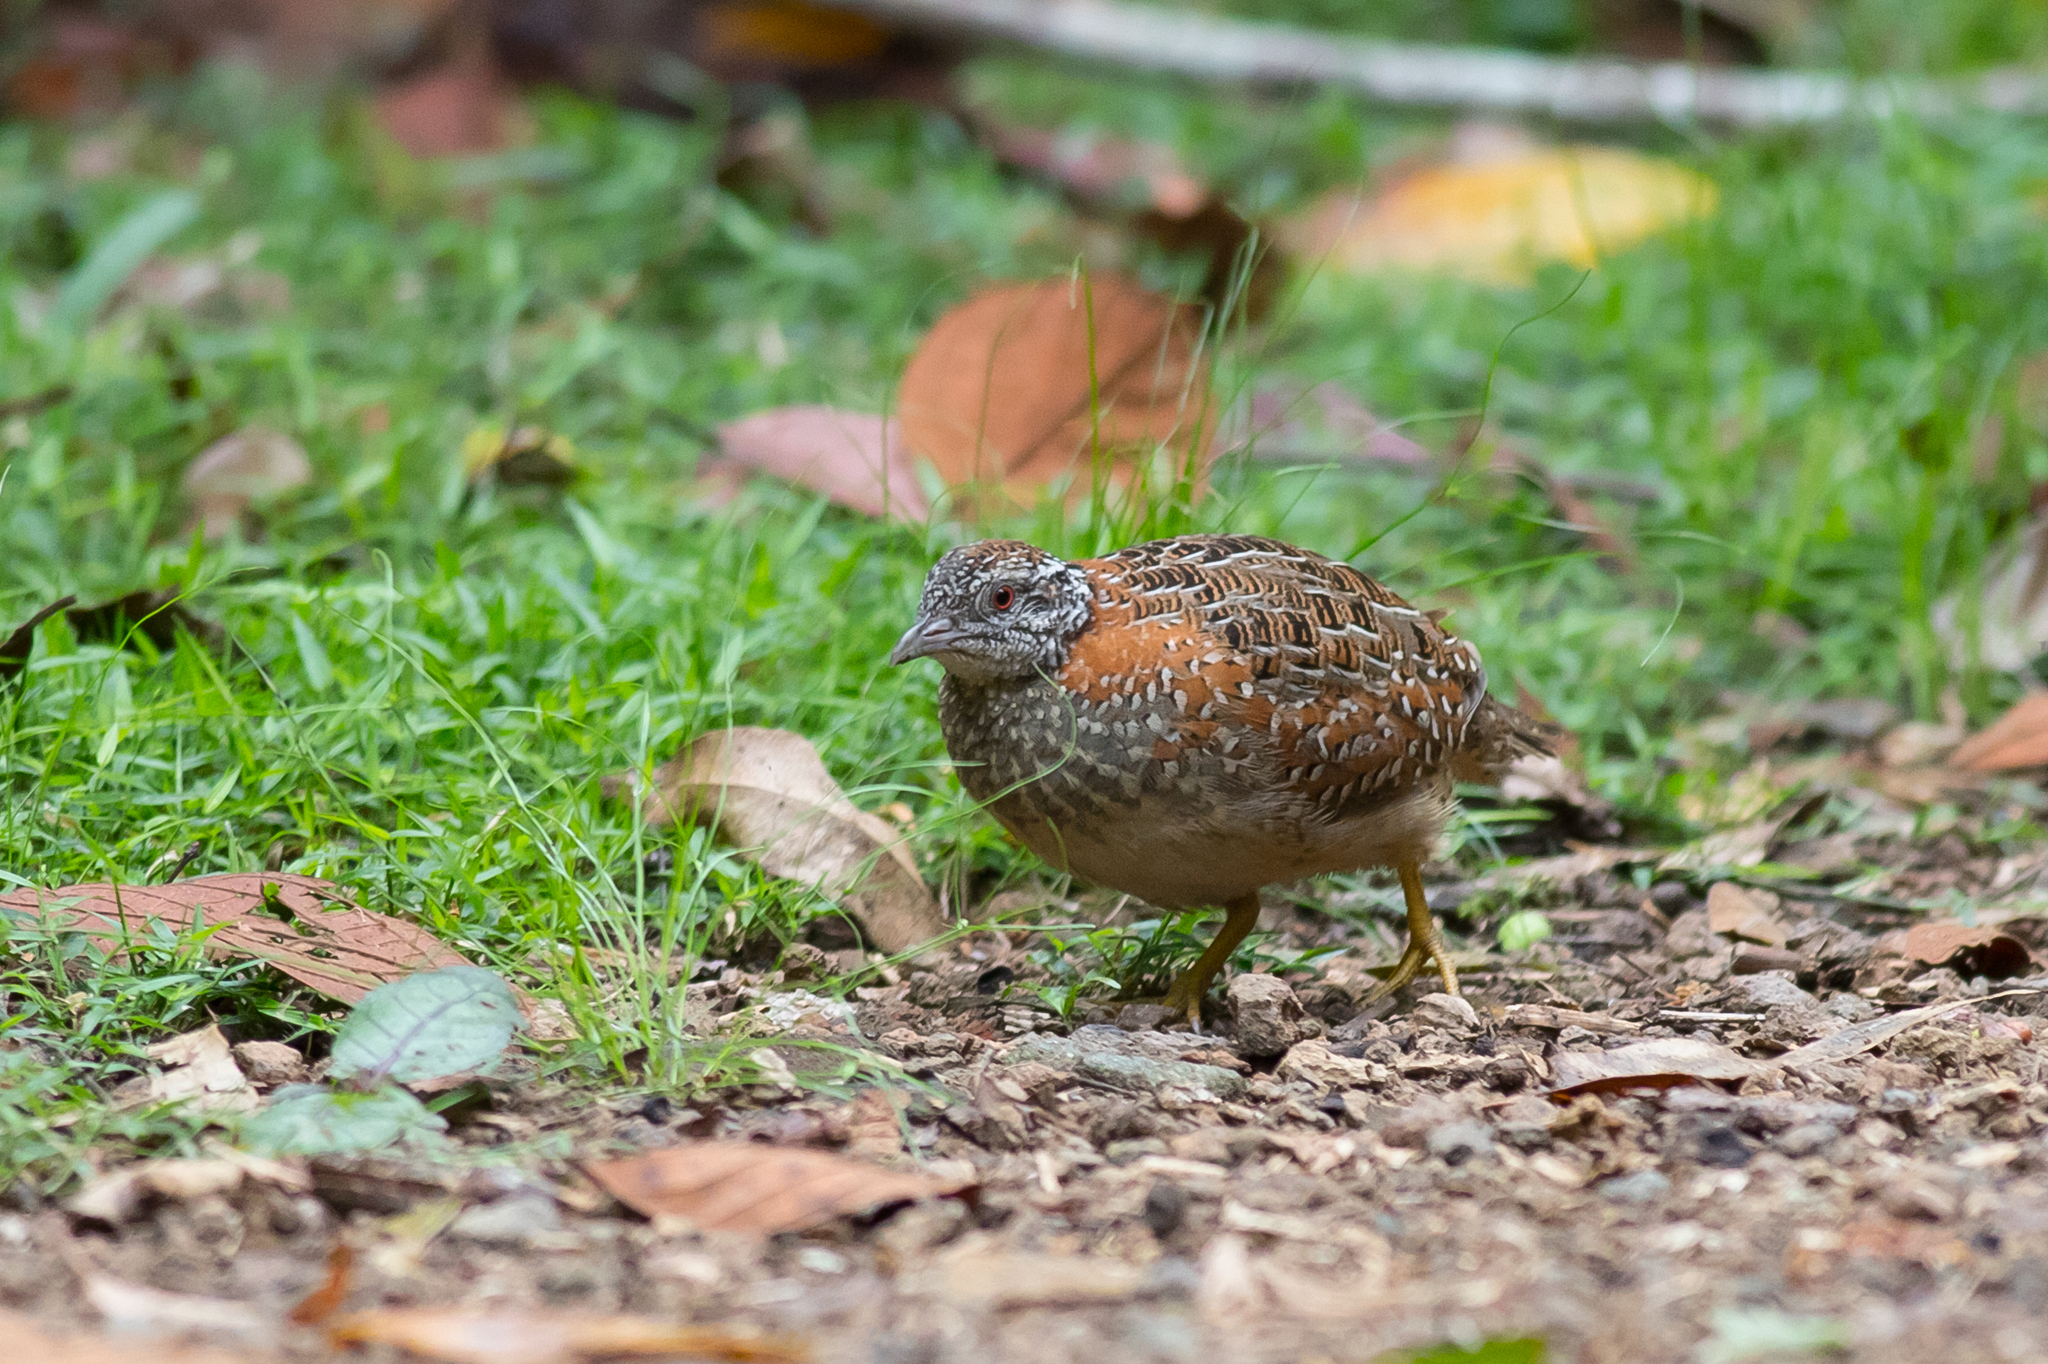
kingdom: Animalia
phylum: Chordata
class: Aves
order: Charadriiformes
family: Turnicidae
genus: Turnix
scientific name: Turnix varius
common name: Painted buttonquail
